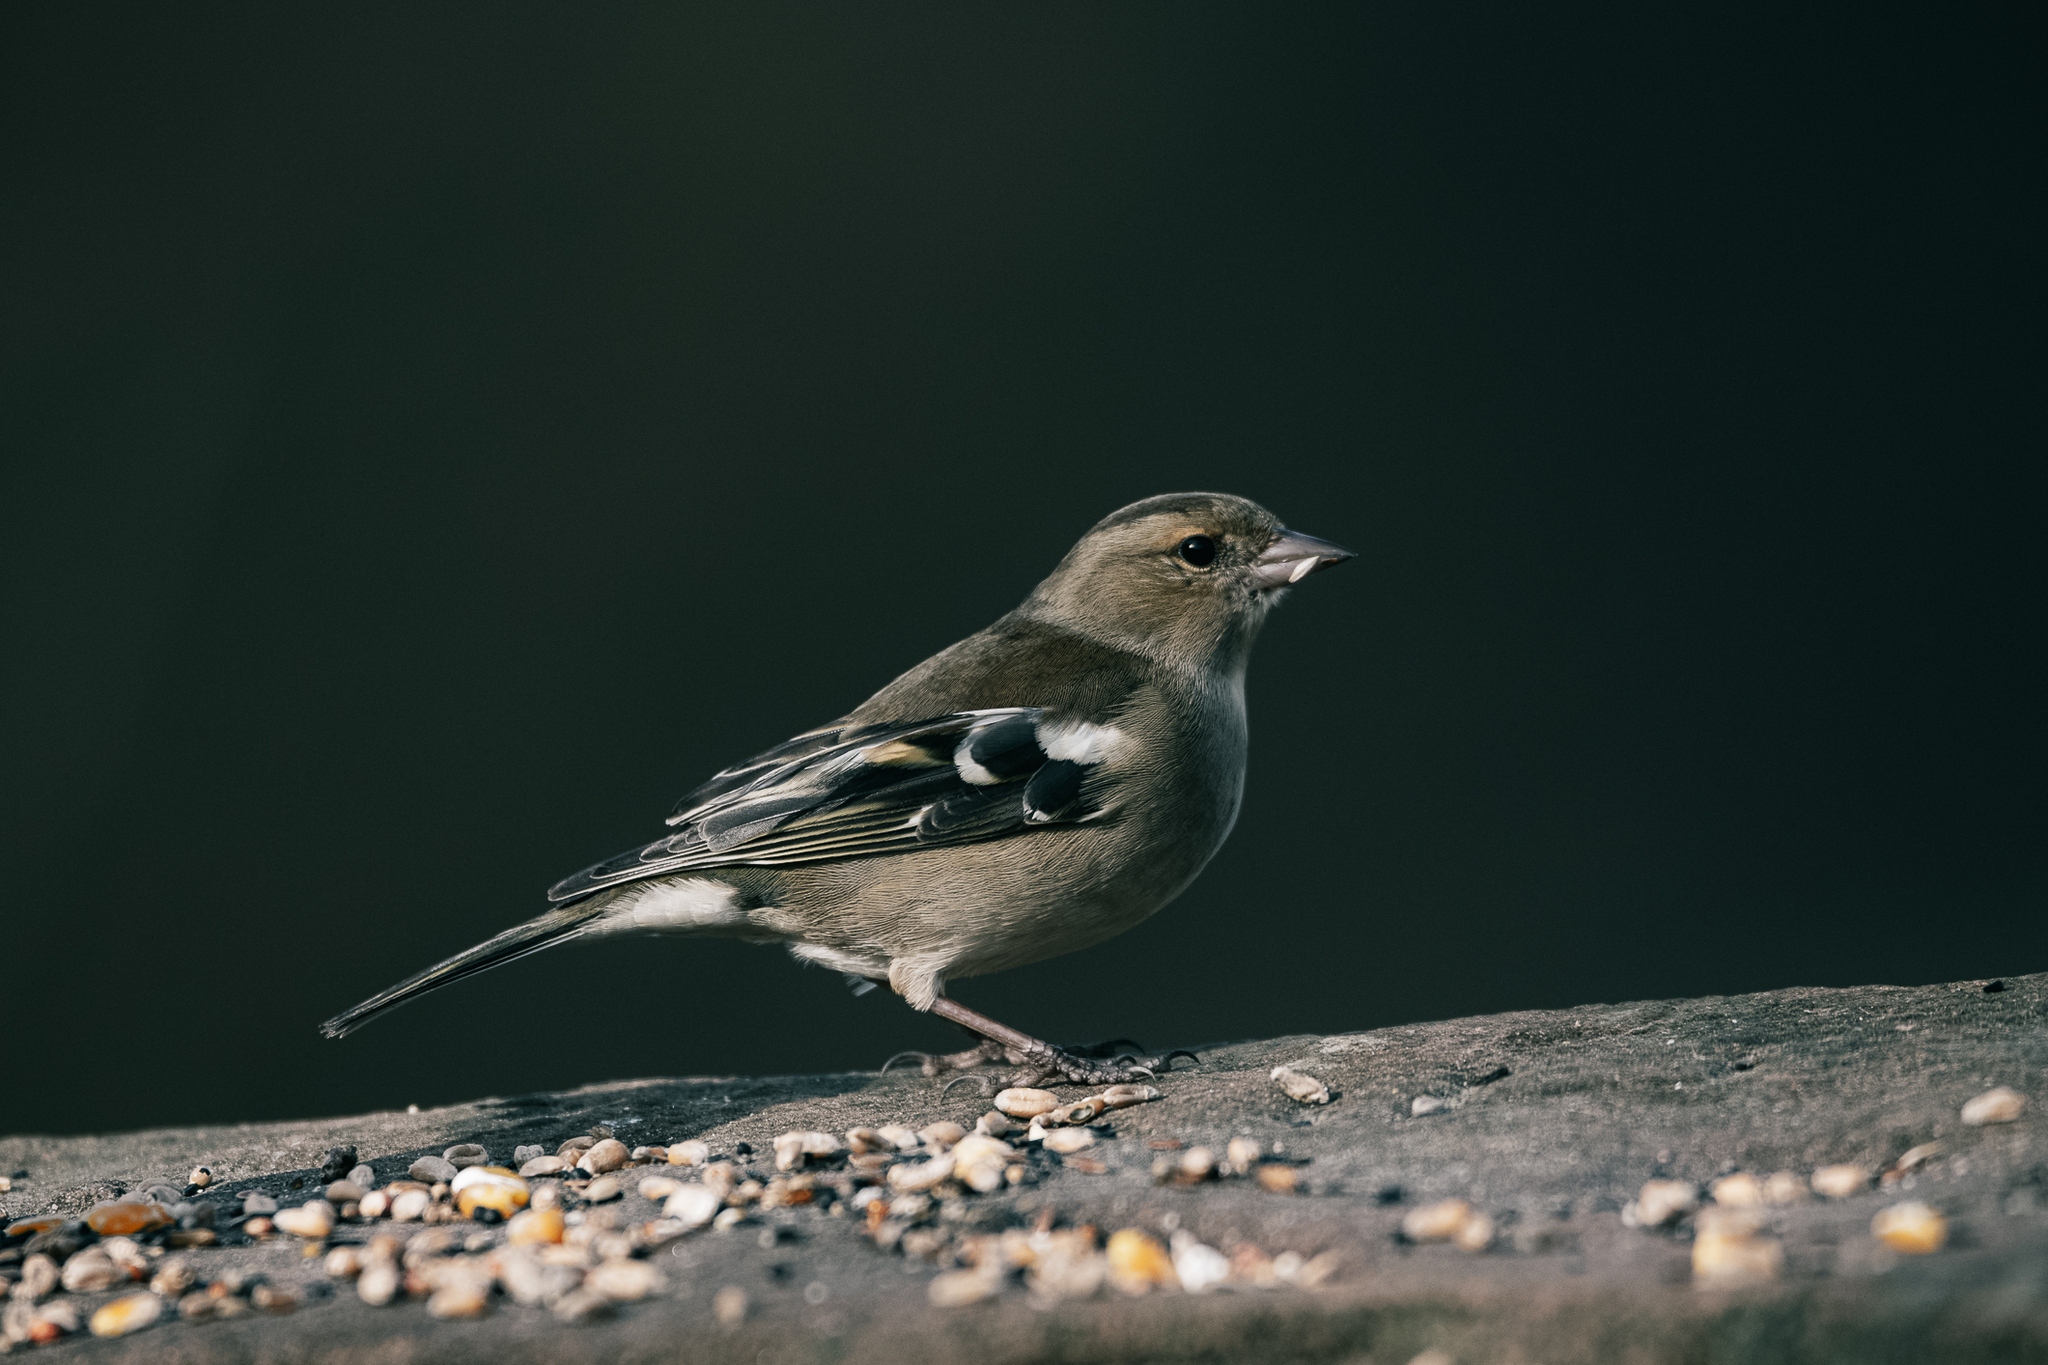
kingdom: Animalia
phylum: Chordata
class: Aves
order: Passeriformes
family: Fringillidae
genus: Fringilla
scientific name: Fringilla coelebs
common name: Common chaffinch
